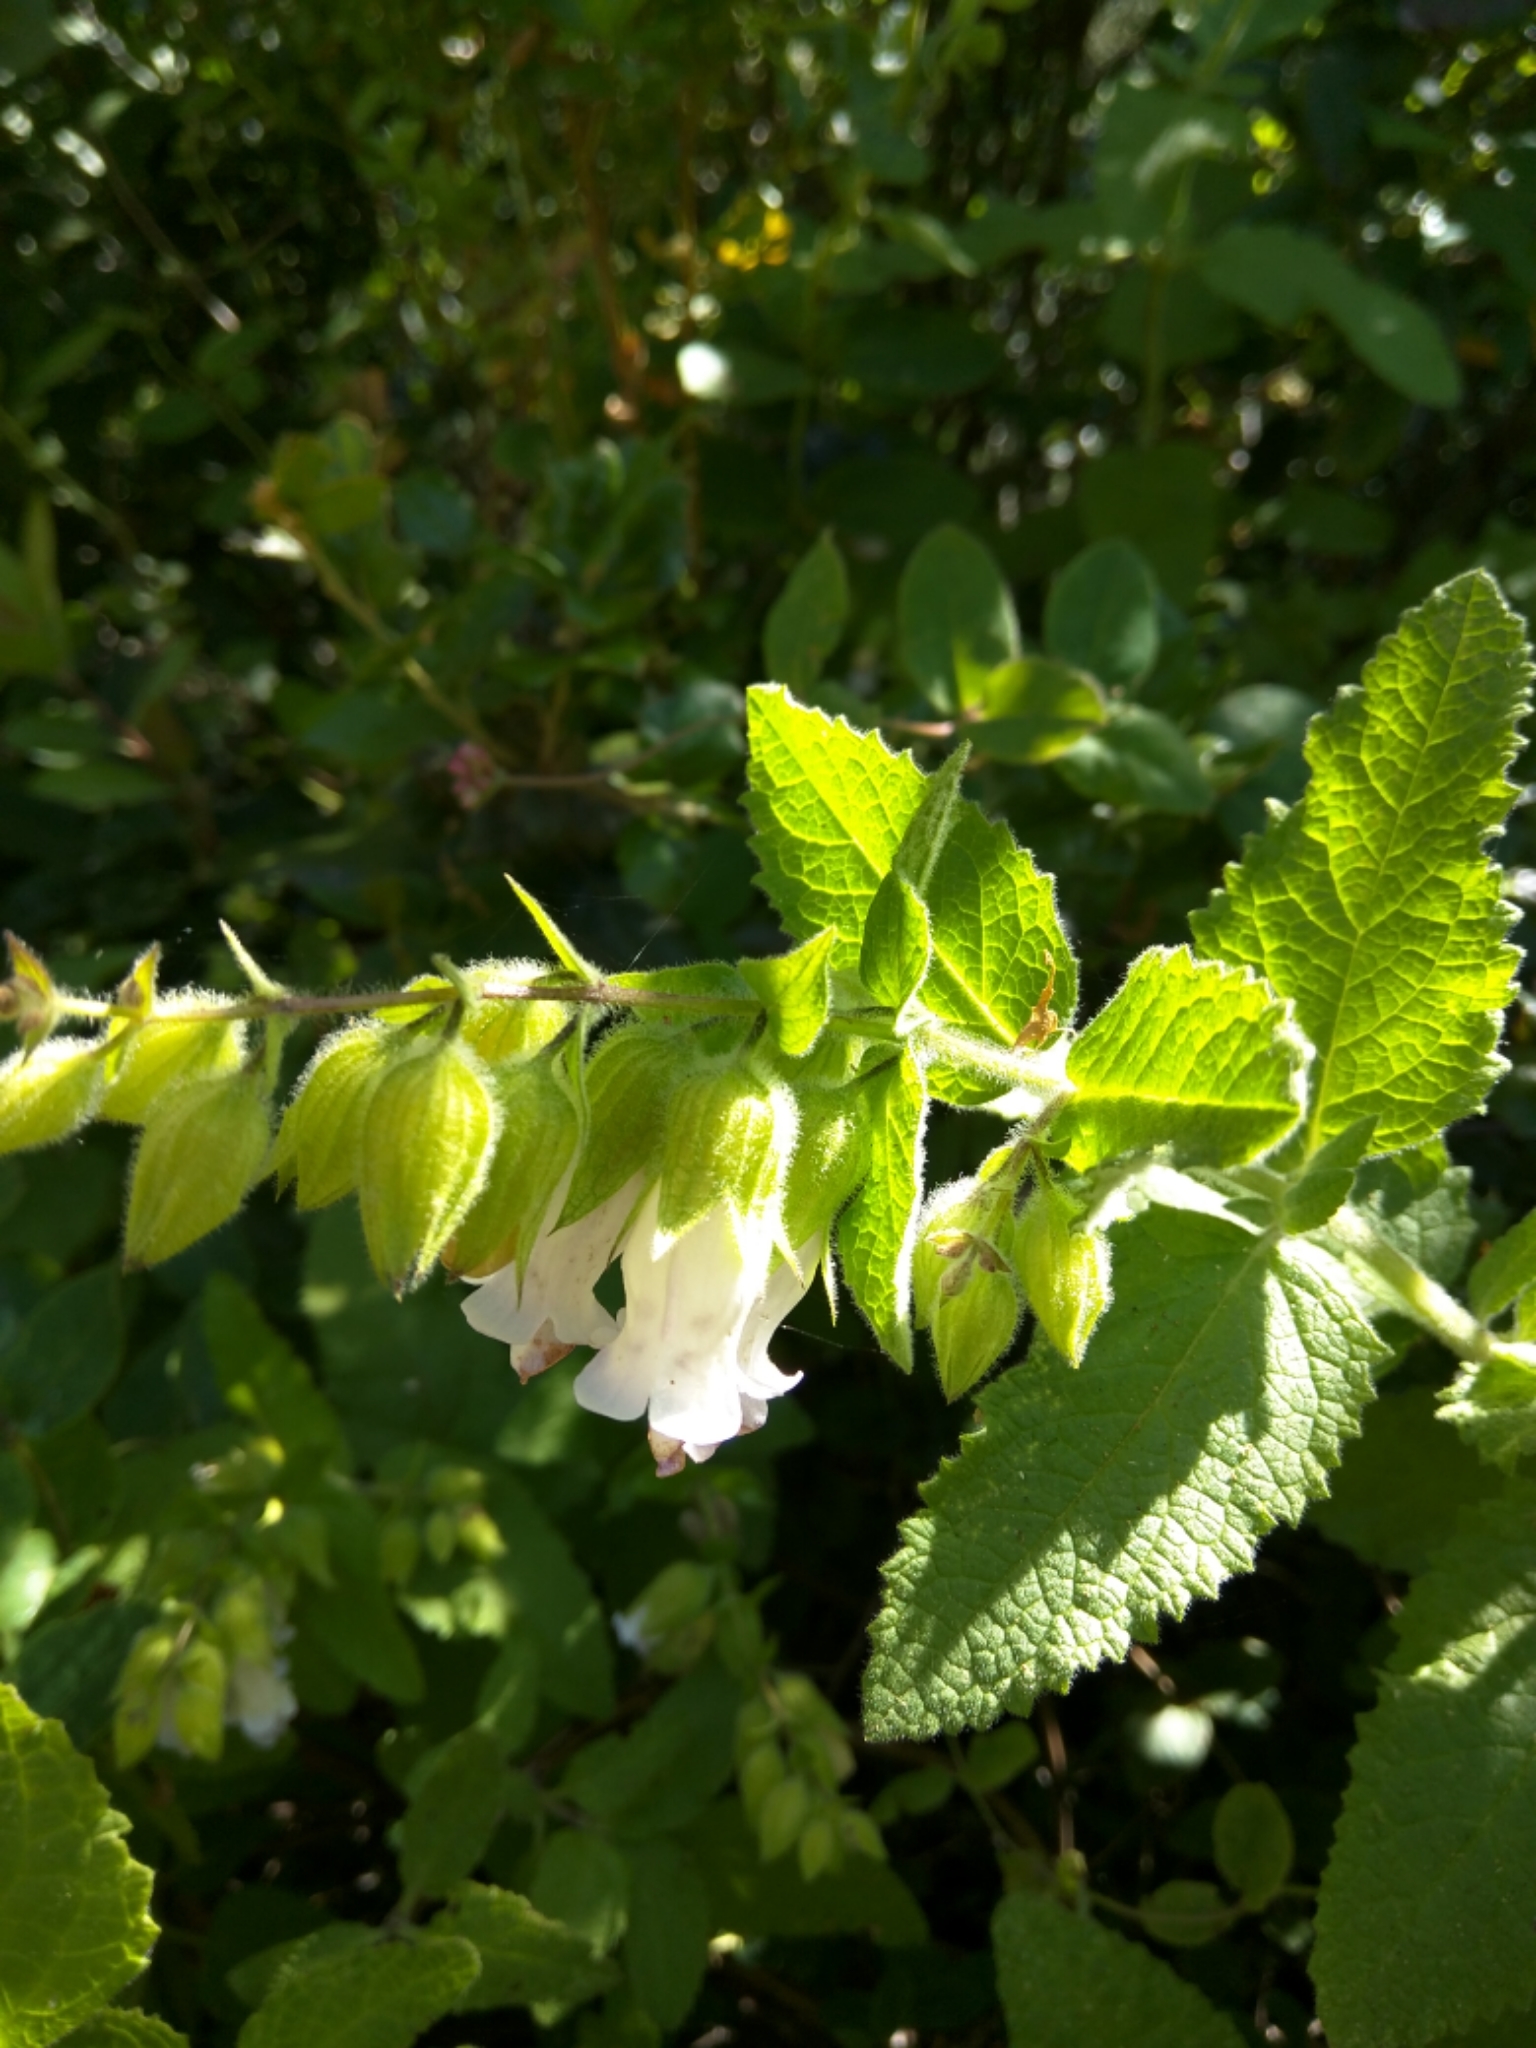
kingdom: Plantae
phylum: Tracheophyta
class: Magnoliopsida
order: Lamiales
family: Lamiaceae
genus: Lepechinia
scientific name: Lepechinia calycina
